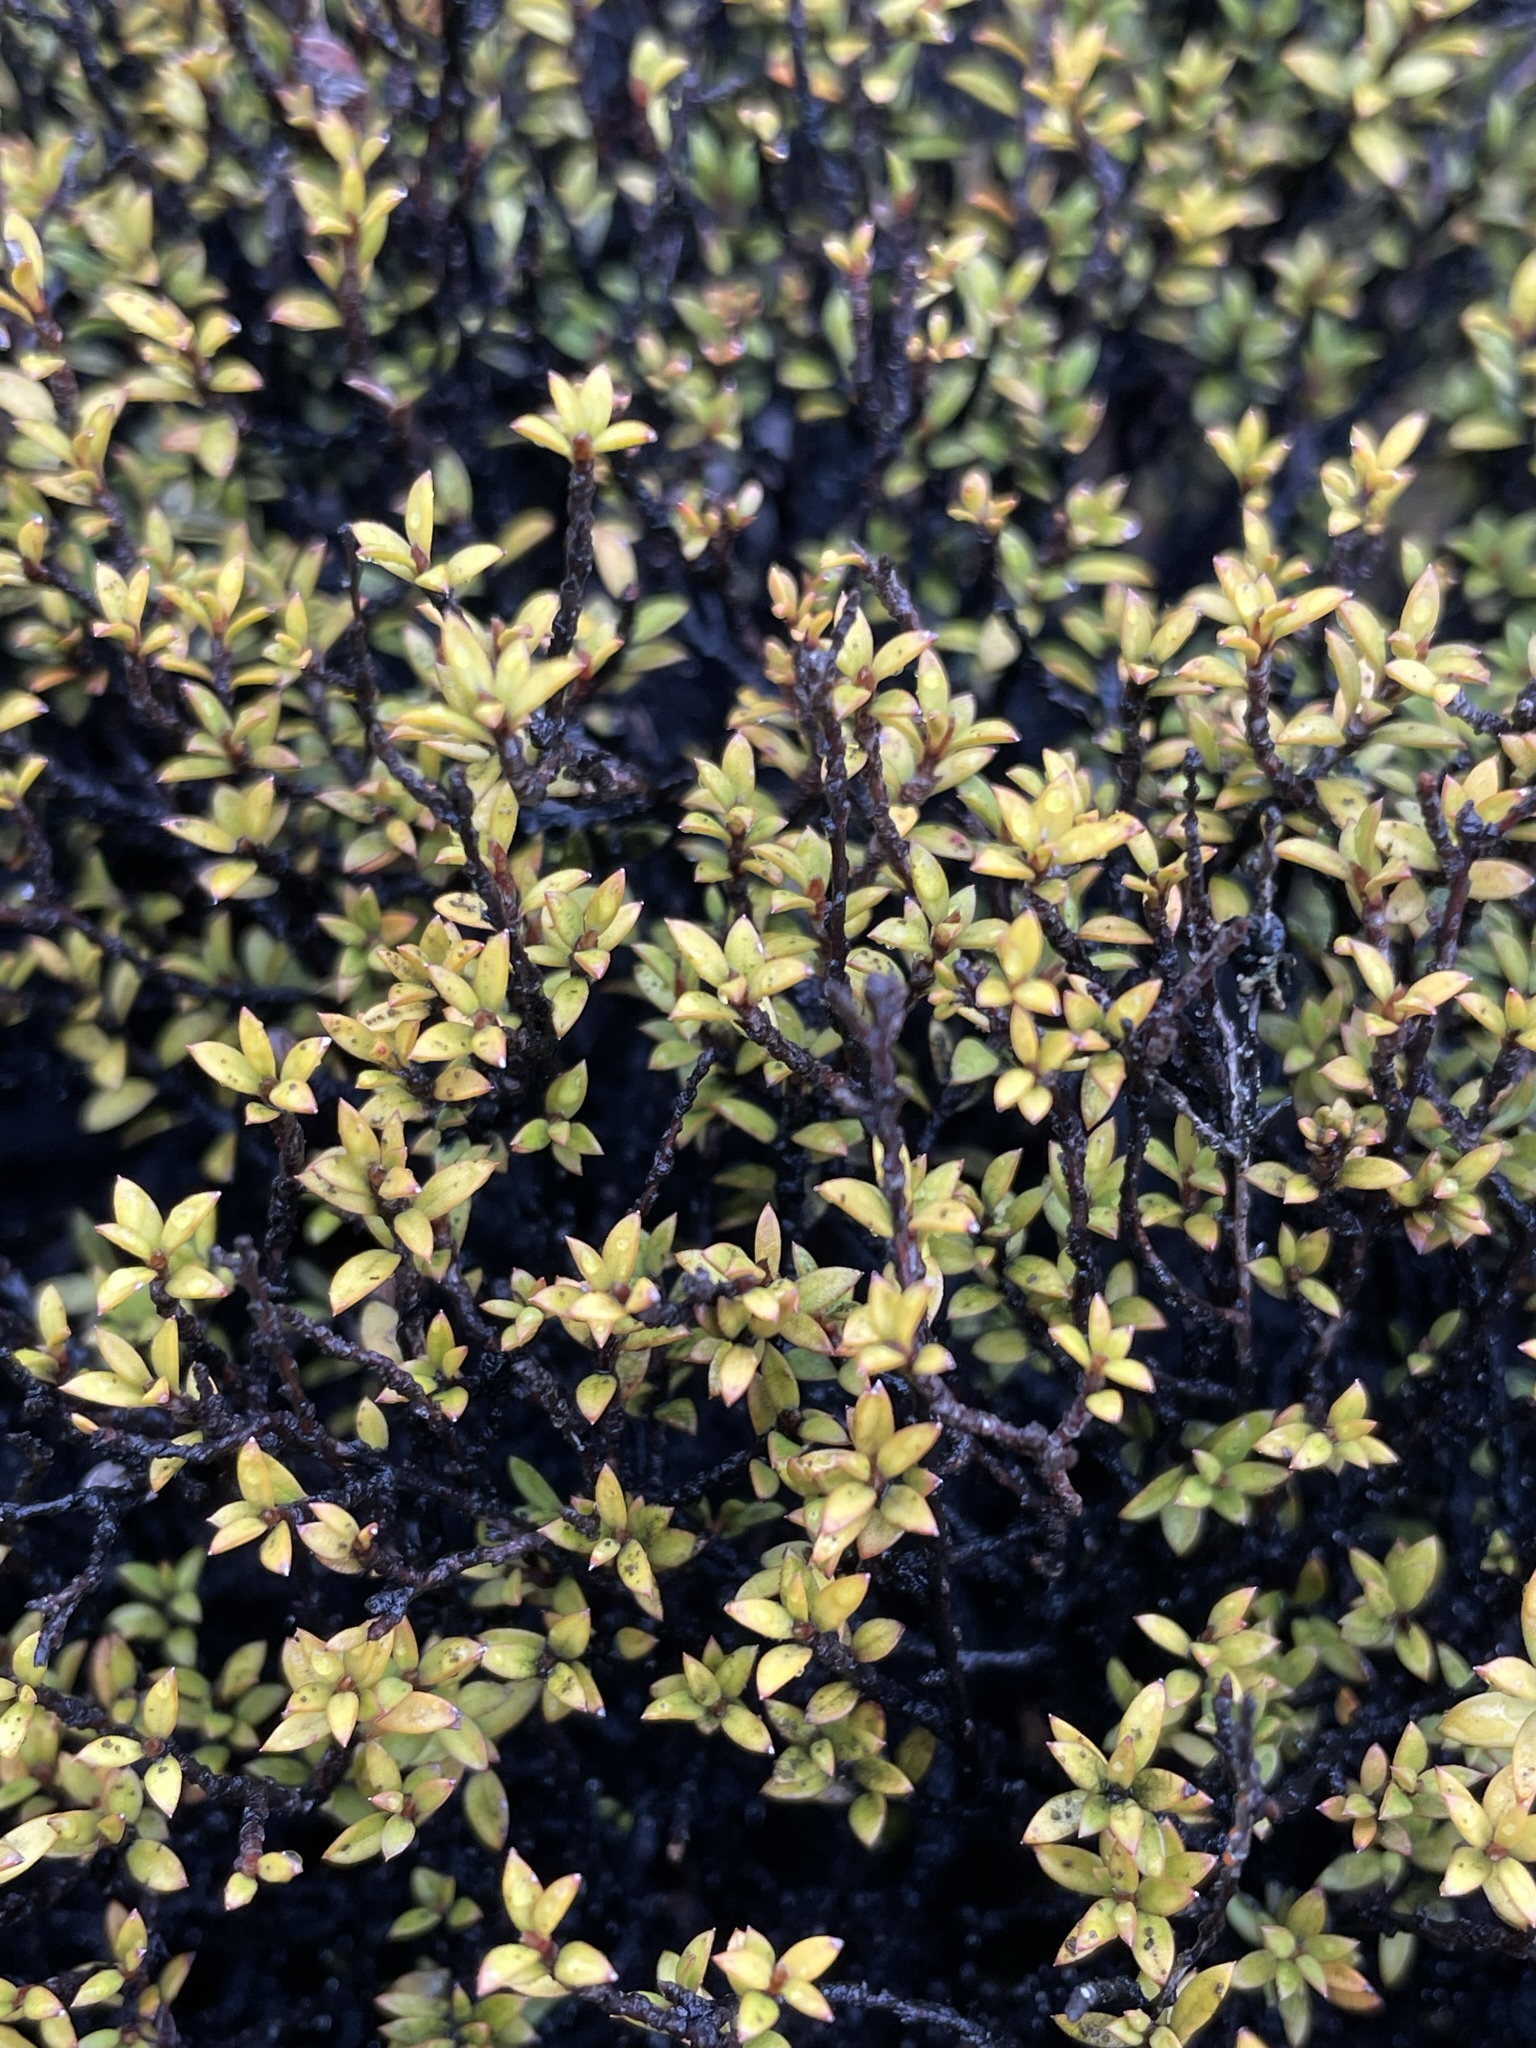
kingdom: Plantae
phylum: Tracheophyta
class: Magnoliopsida
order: Myrtales
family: Myrtaceae
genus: Leptospermum
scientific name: Leptospermum scoparium
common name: Broom tea-tree
